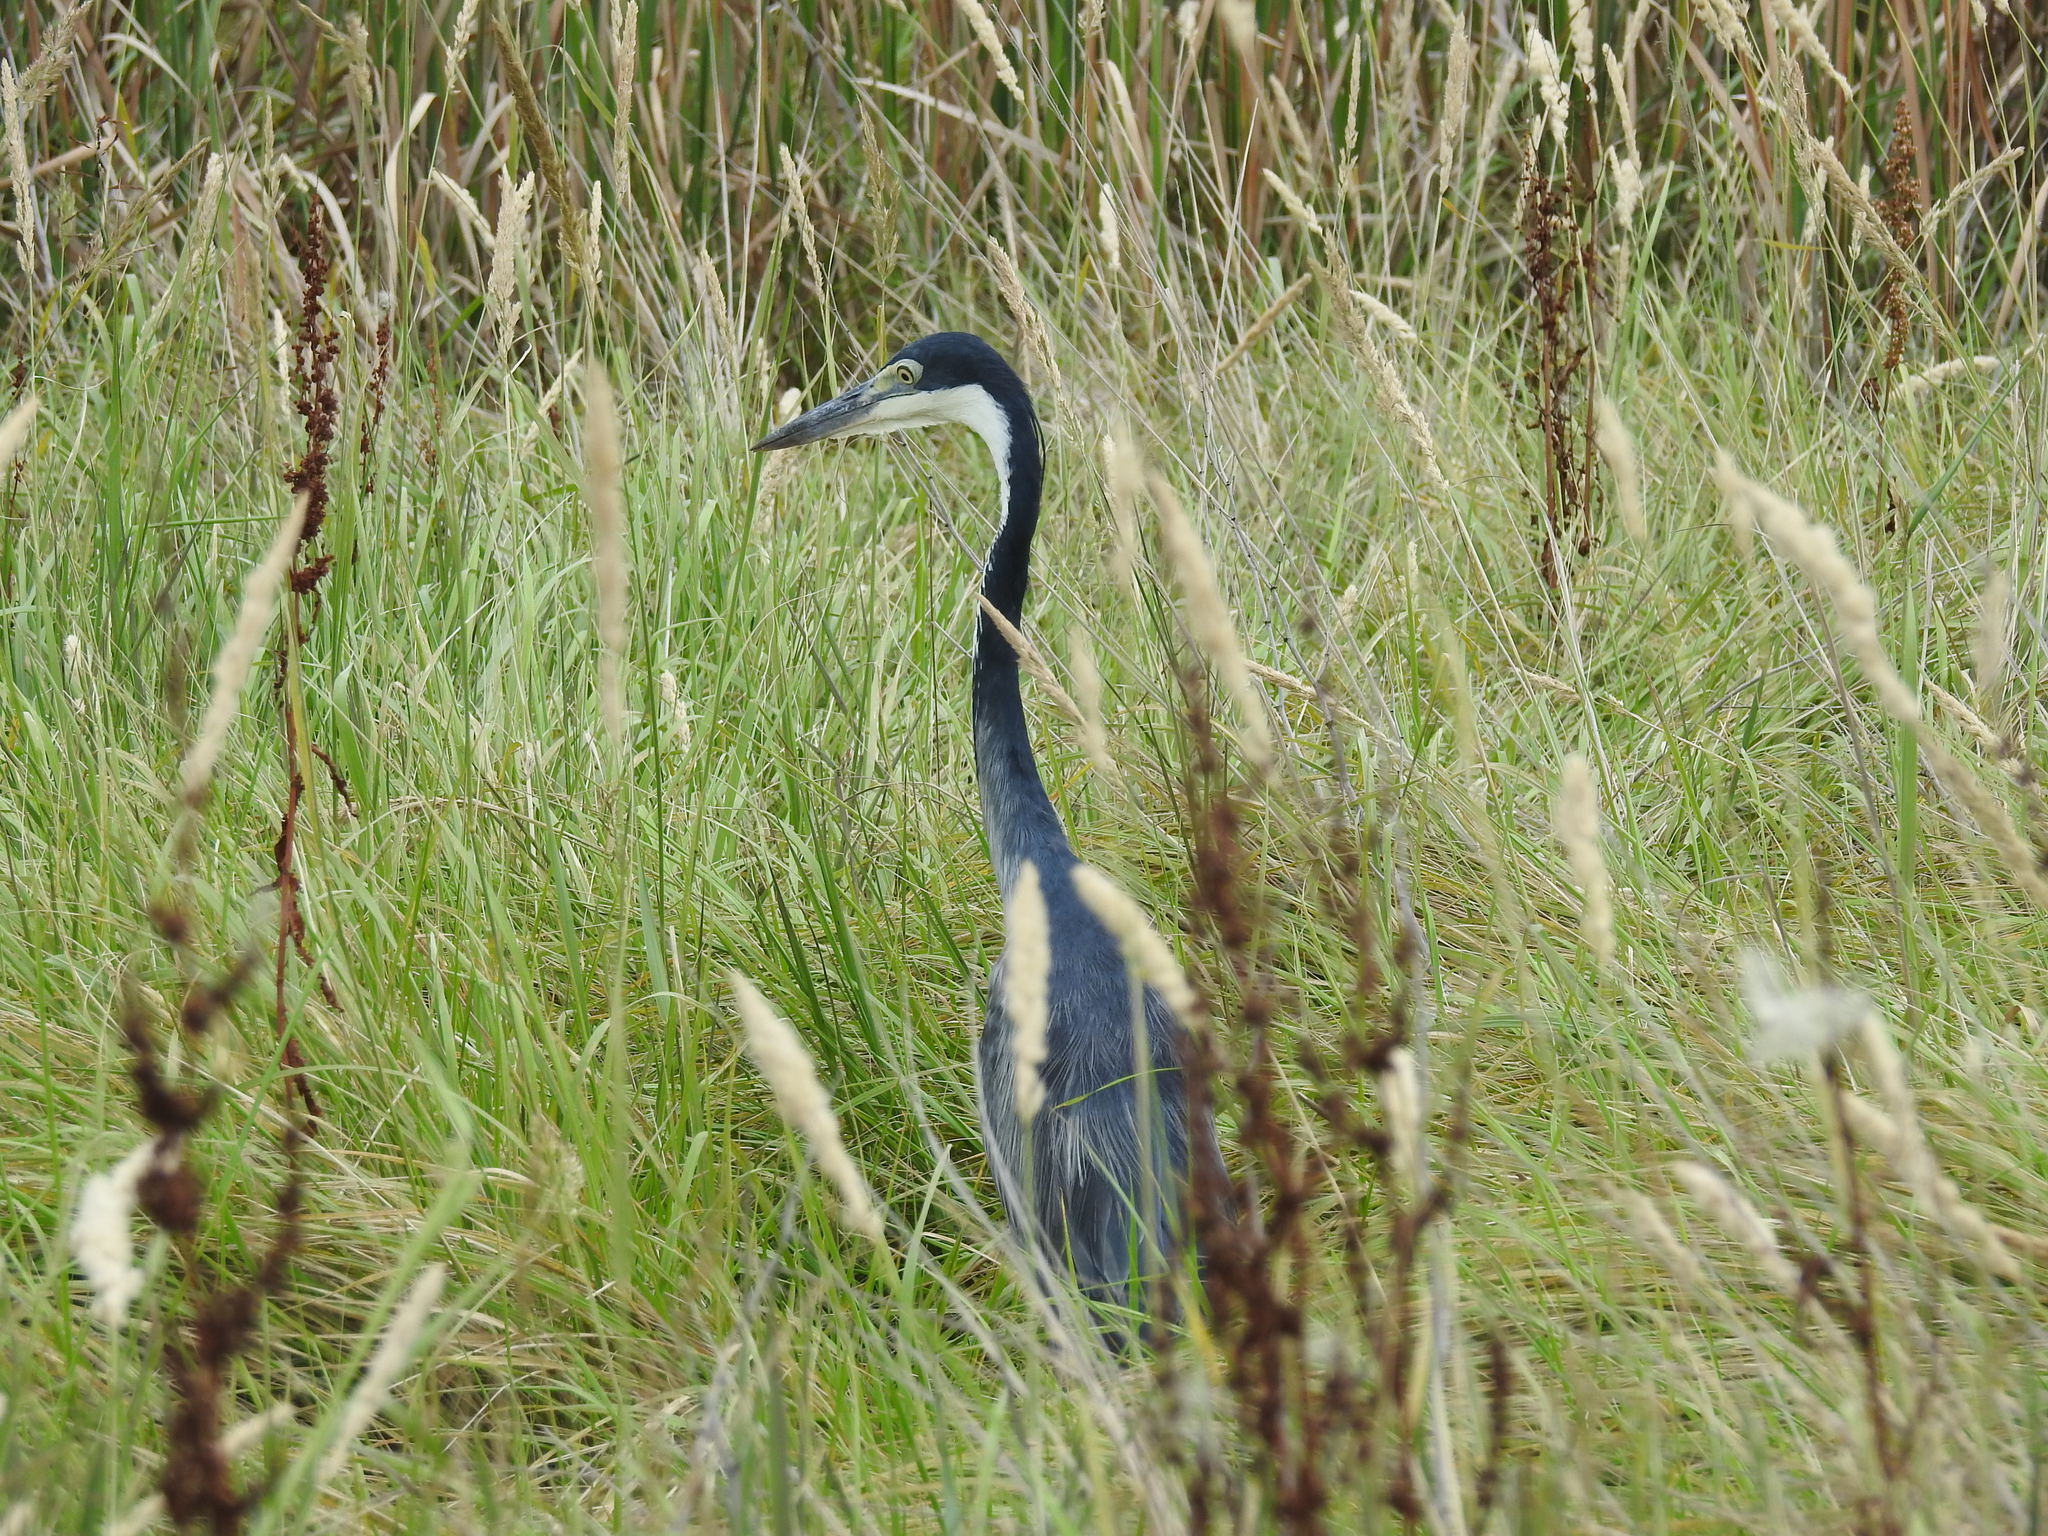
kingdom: Animalia
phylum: Chordata
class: Aves
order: Pelecaniformes
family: Ardeidae
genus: Ardea
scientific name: Ardea melanocephala
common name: Black-headed heron
